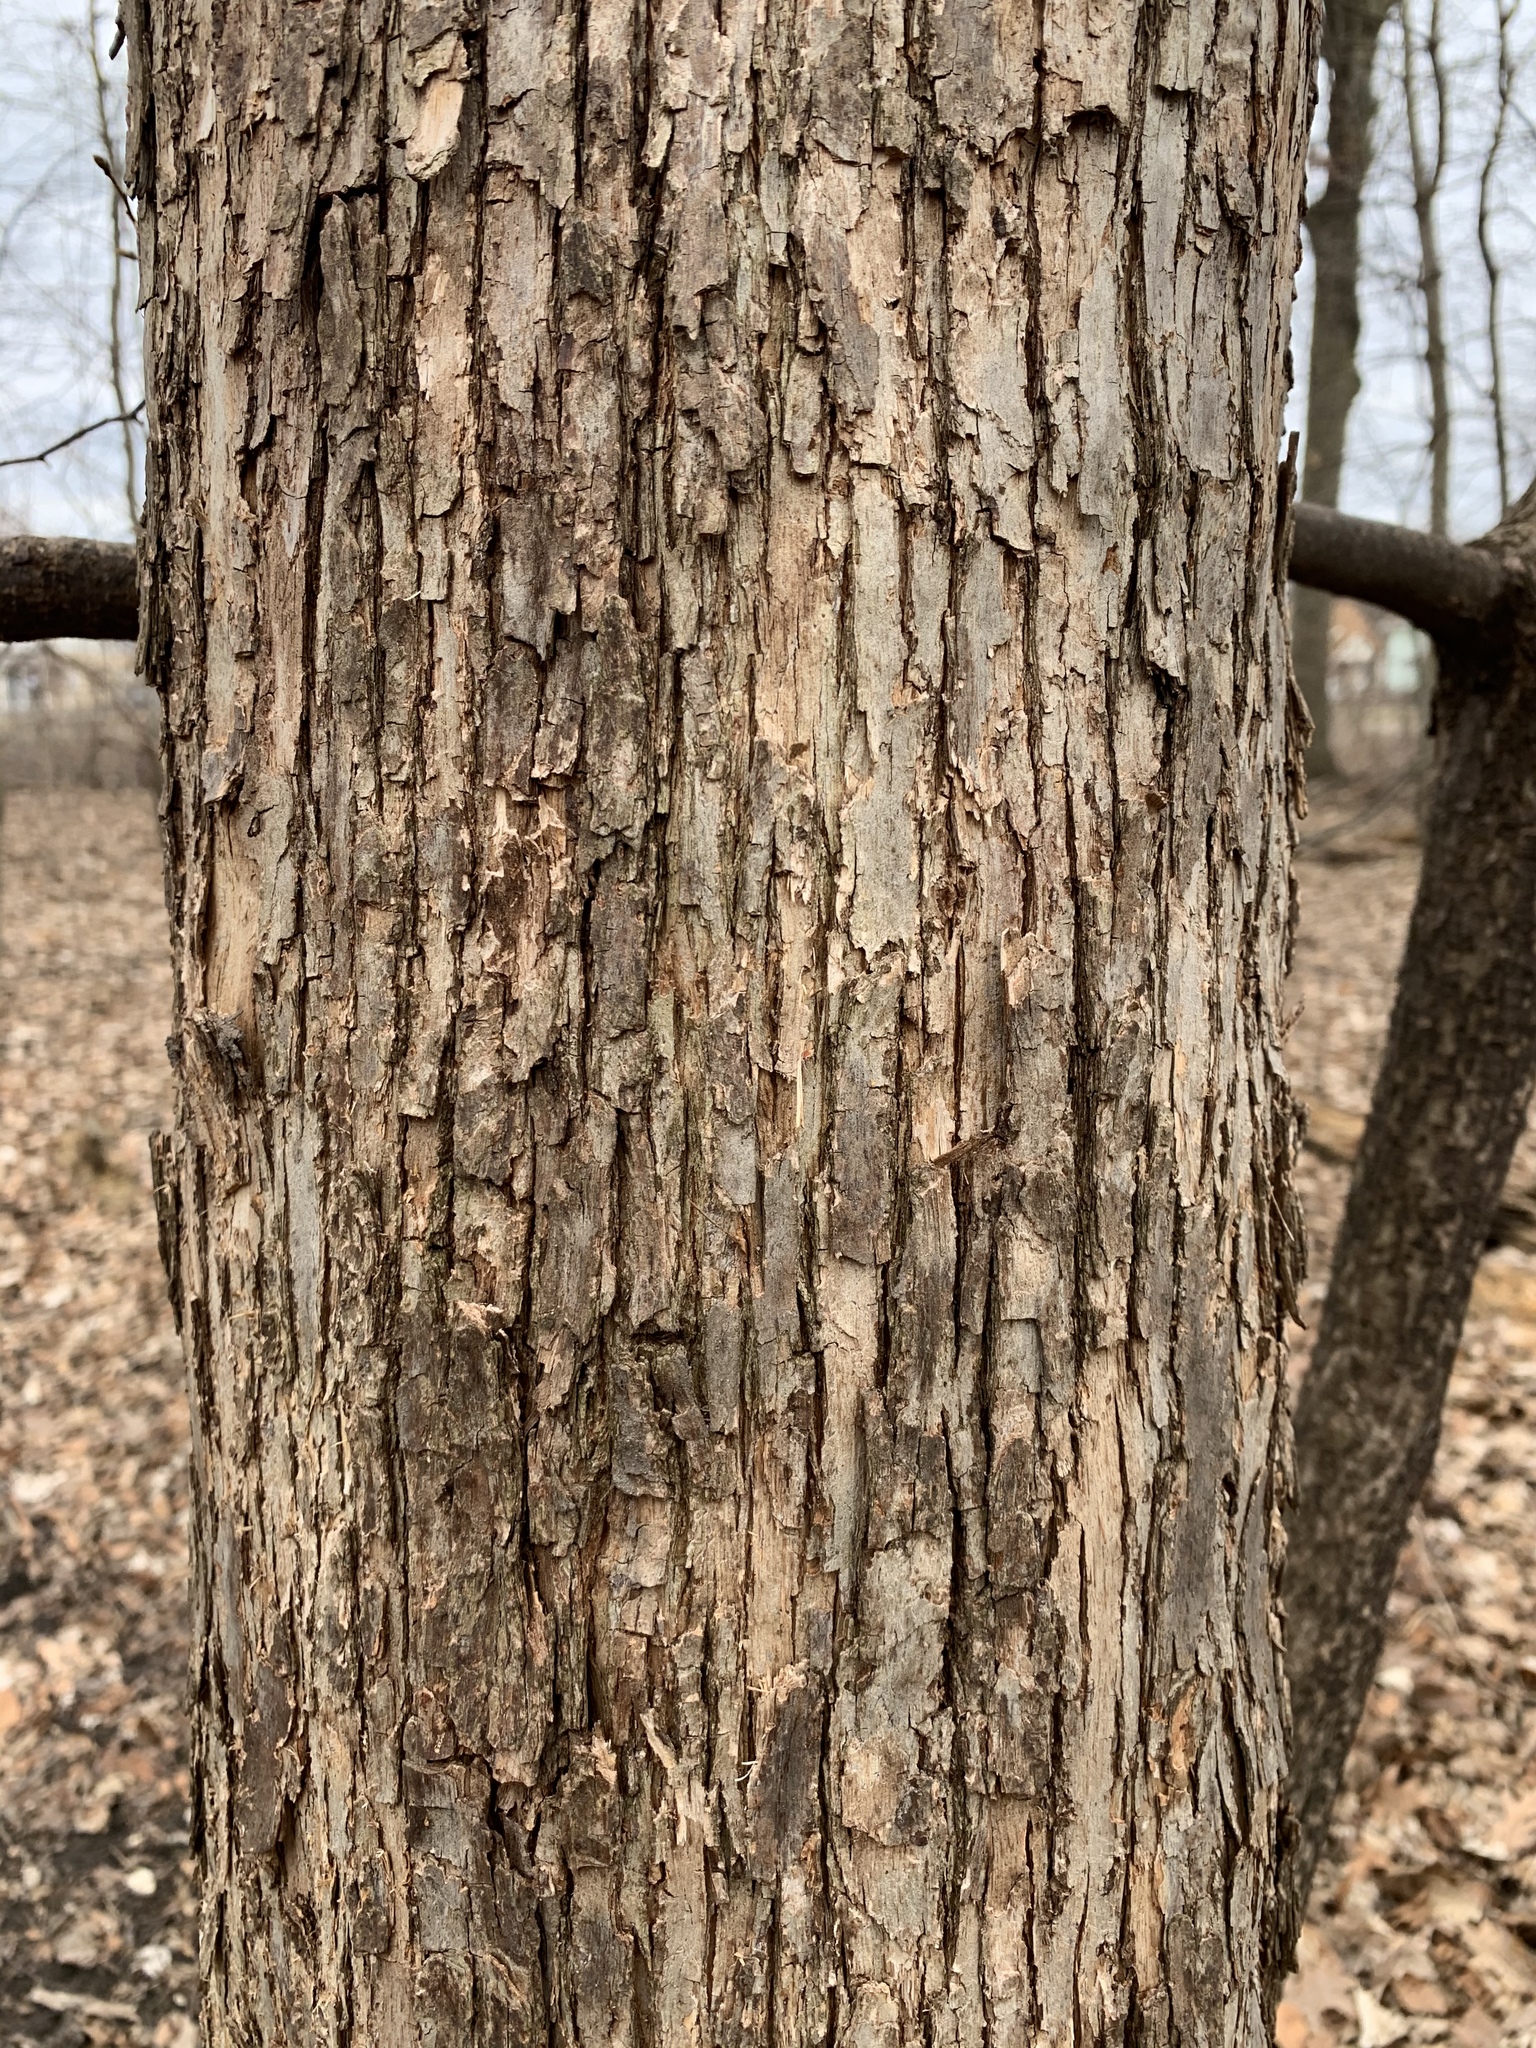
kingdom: Plantae
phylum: Tracheophyta
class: Magnoliopsida
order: Fagales
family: Betulaceae
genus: Ostrya
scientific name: Ostrya virginiana
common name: Ironwood
